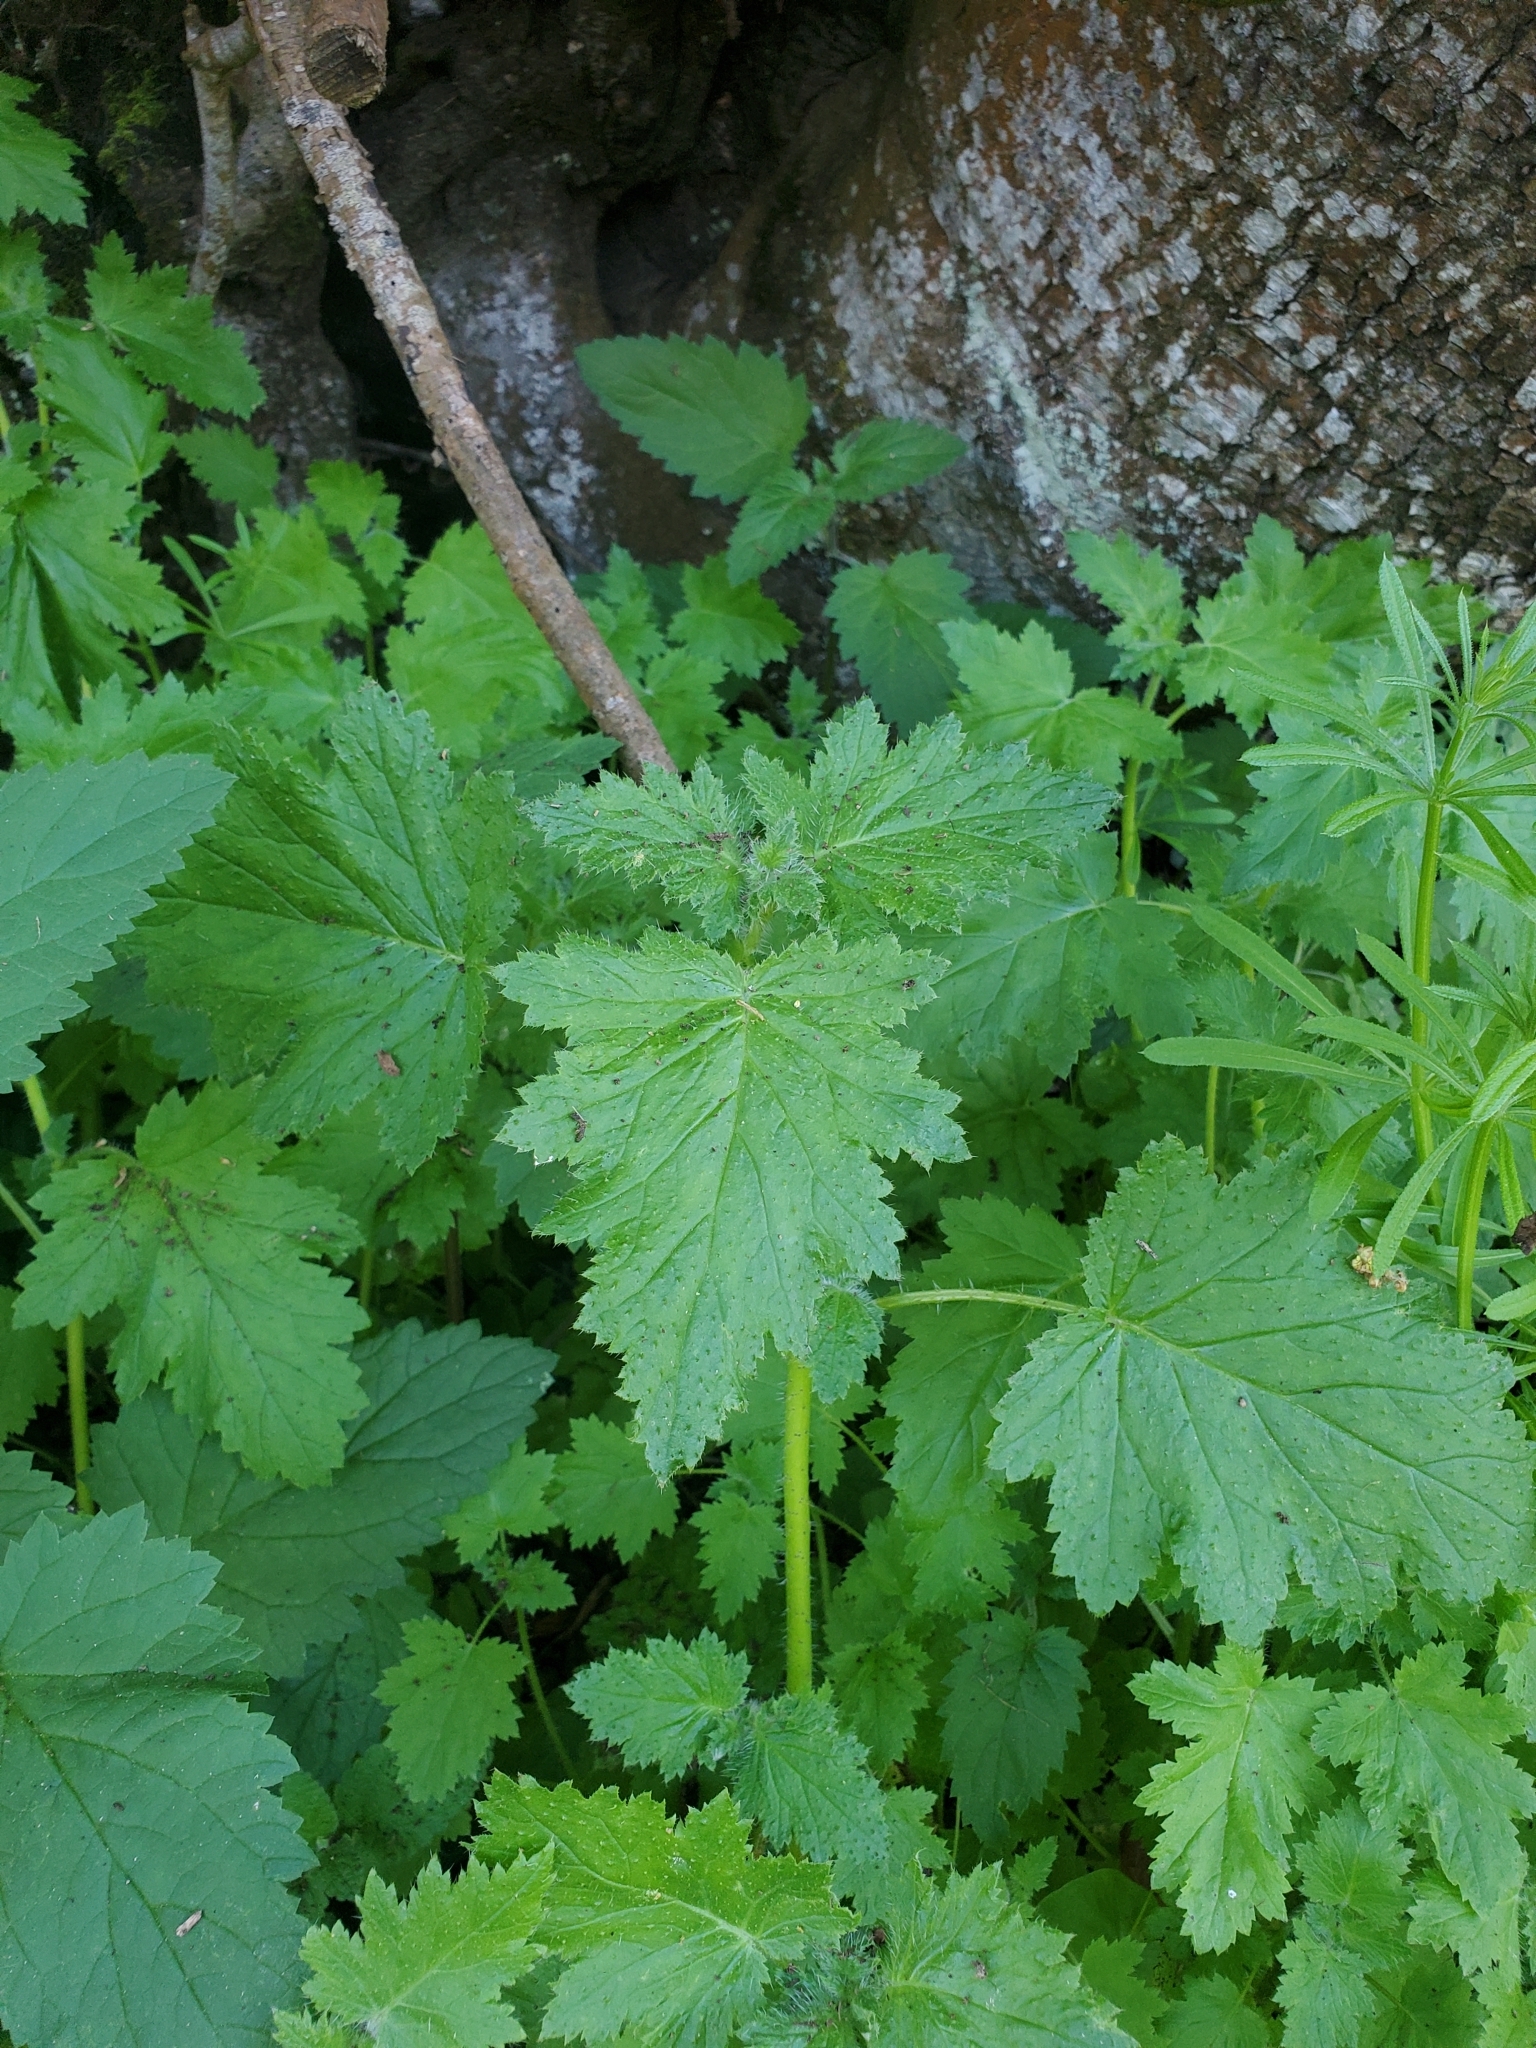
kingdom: Plantae
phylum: Tracheophyta
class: Magnoliopsida
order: Boraginales
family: Hydrophyllaceae
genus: Phacelia
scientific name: Phacelia malvifolia
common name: Mallow-leaf phacelia
